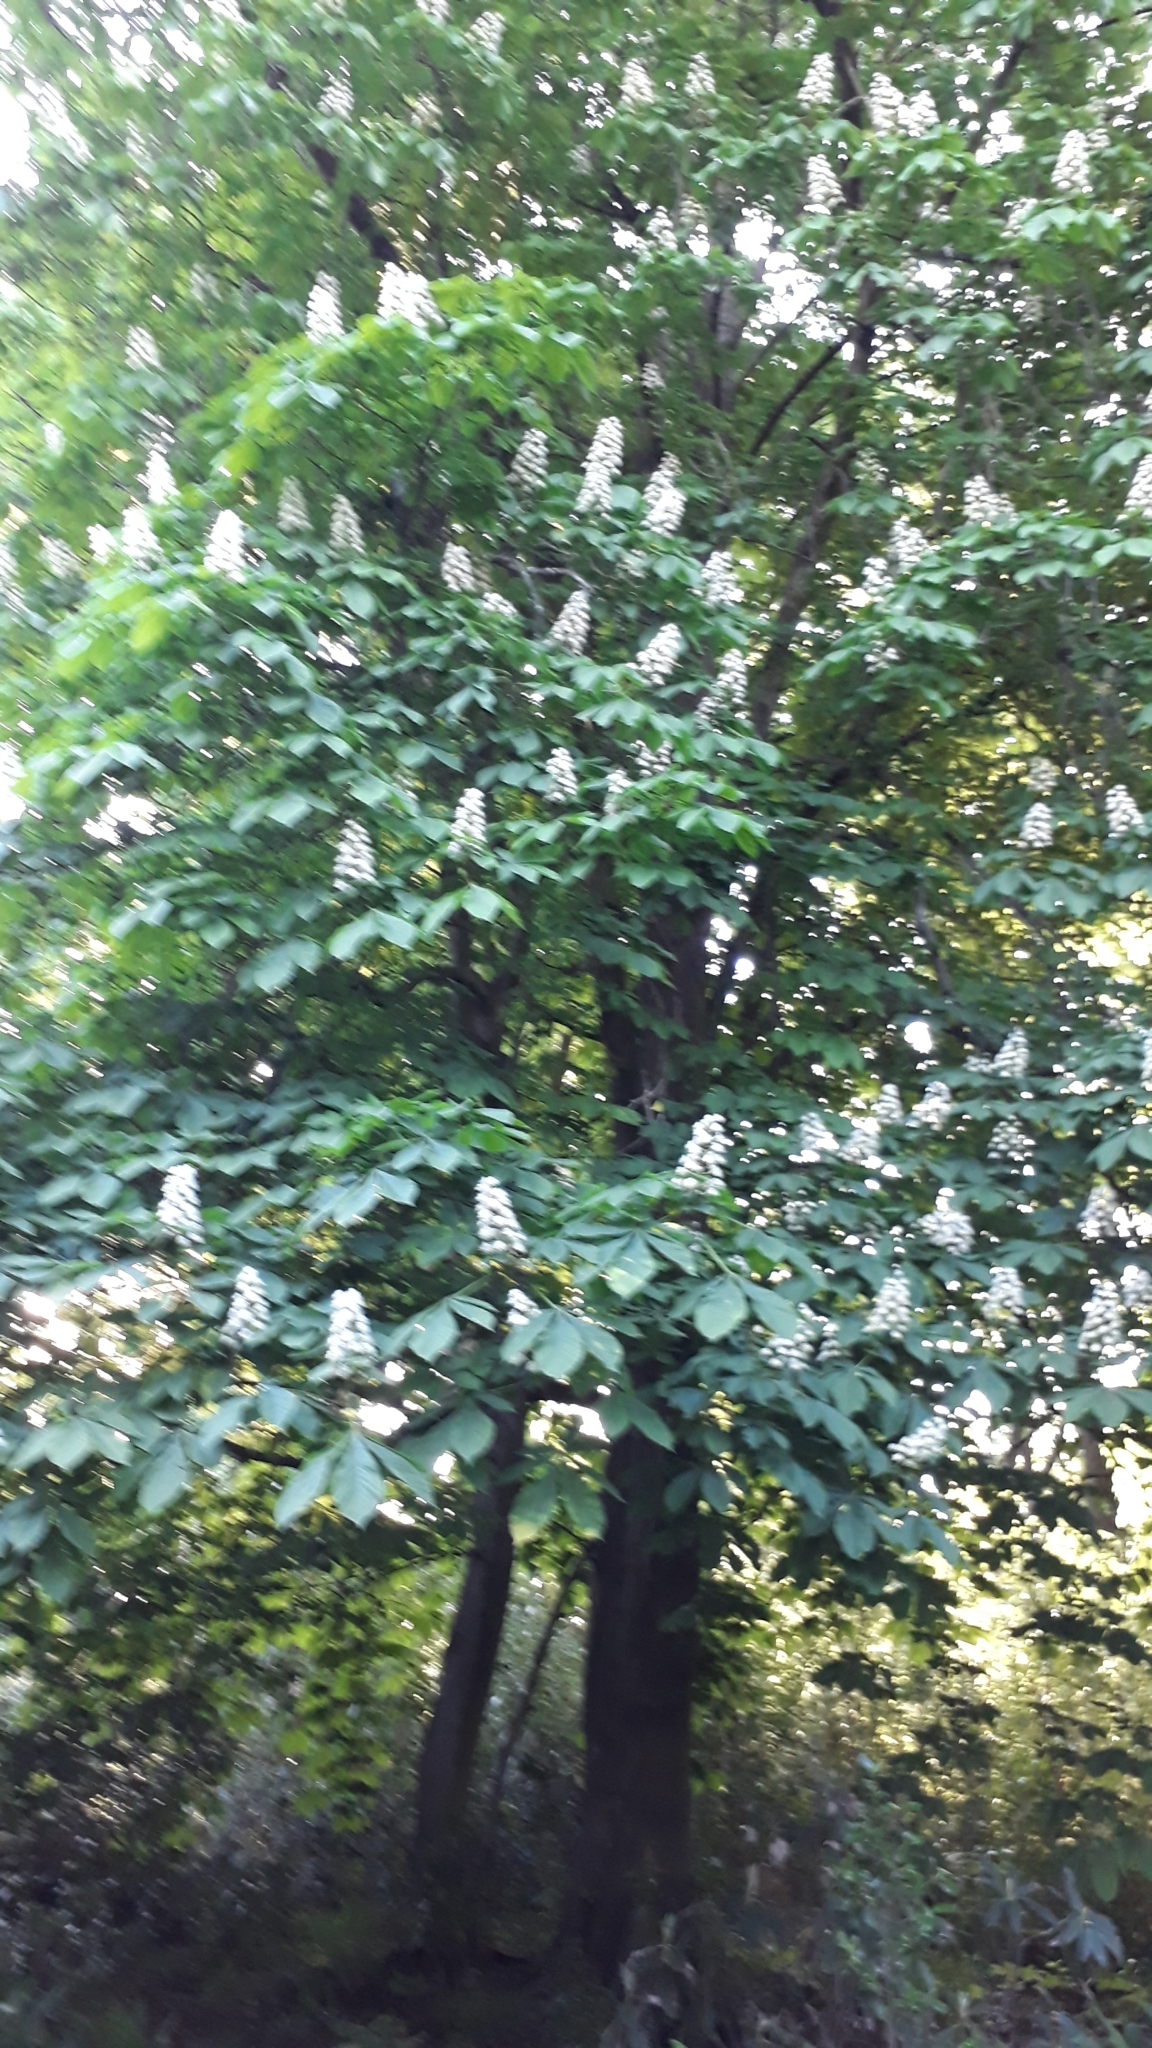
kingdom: Plantae
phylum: Tracheophyta
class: Magnoliopsida
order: Sapindales
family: Sapindaceae
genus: Aesculus
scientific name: Aesculus hippocastanum
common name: Horse-chestnut
